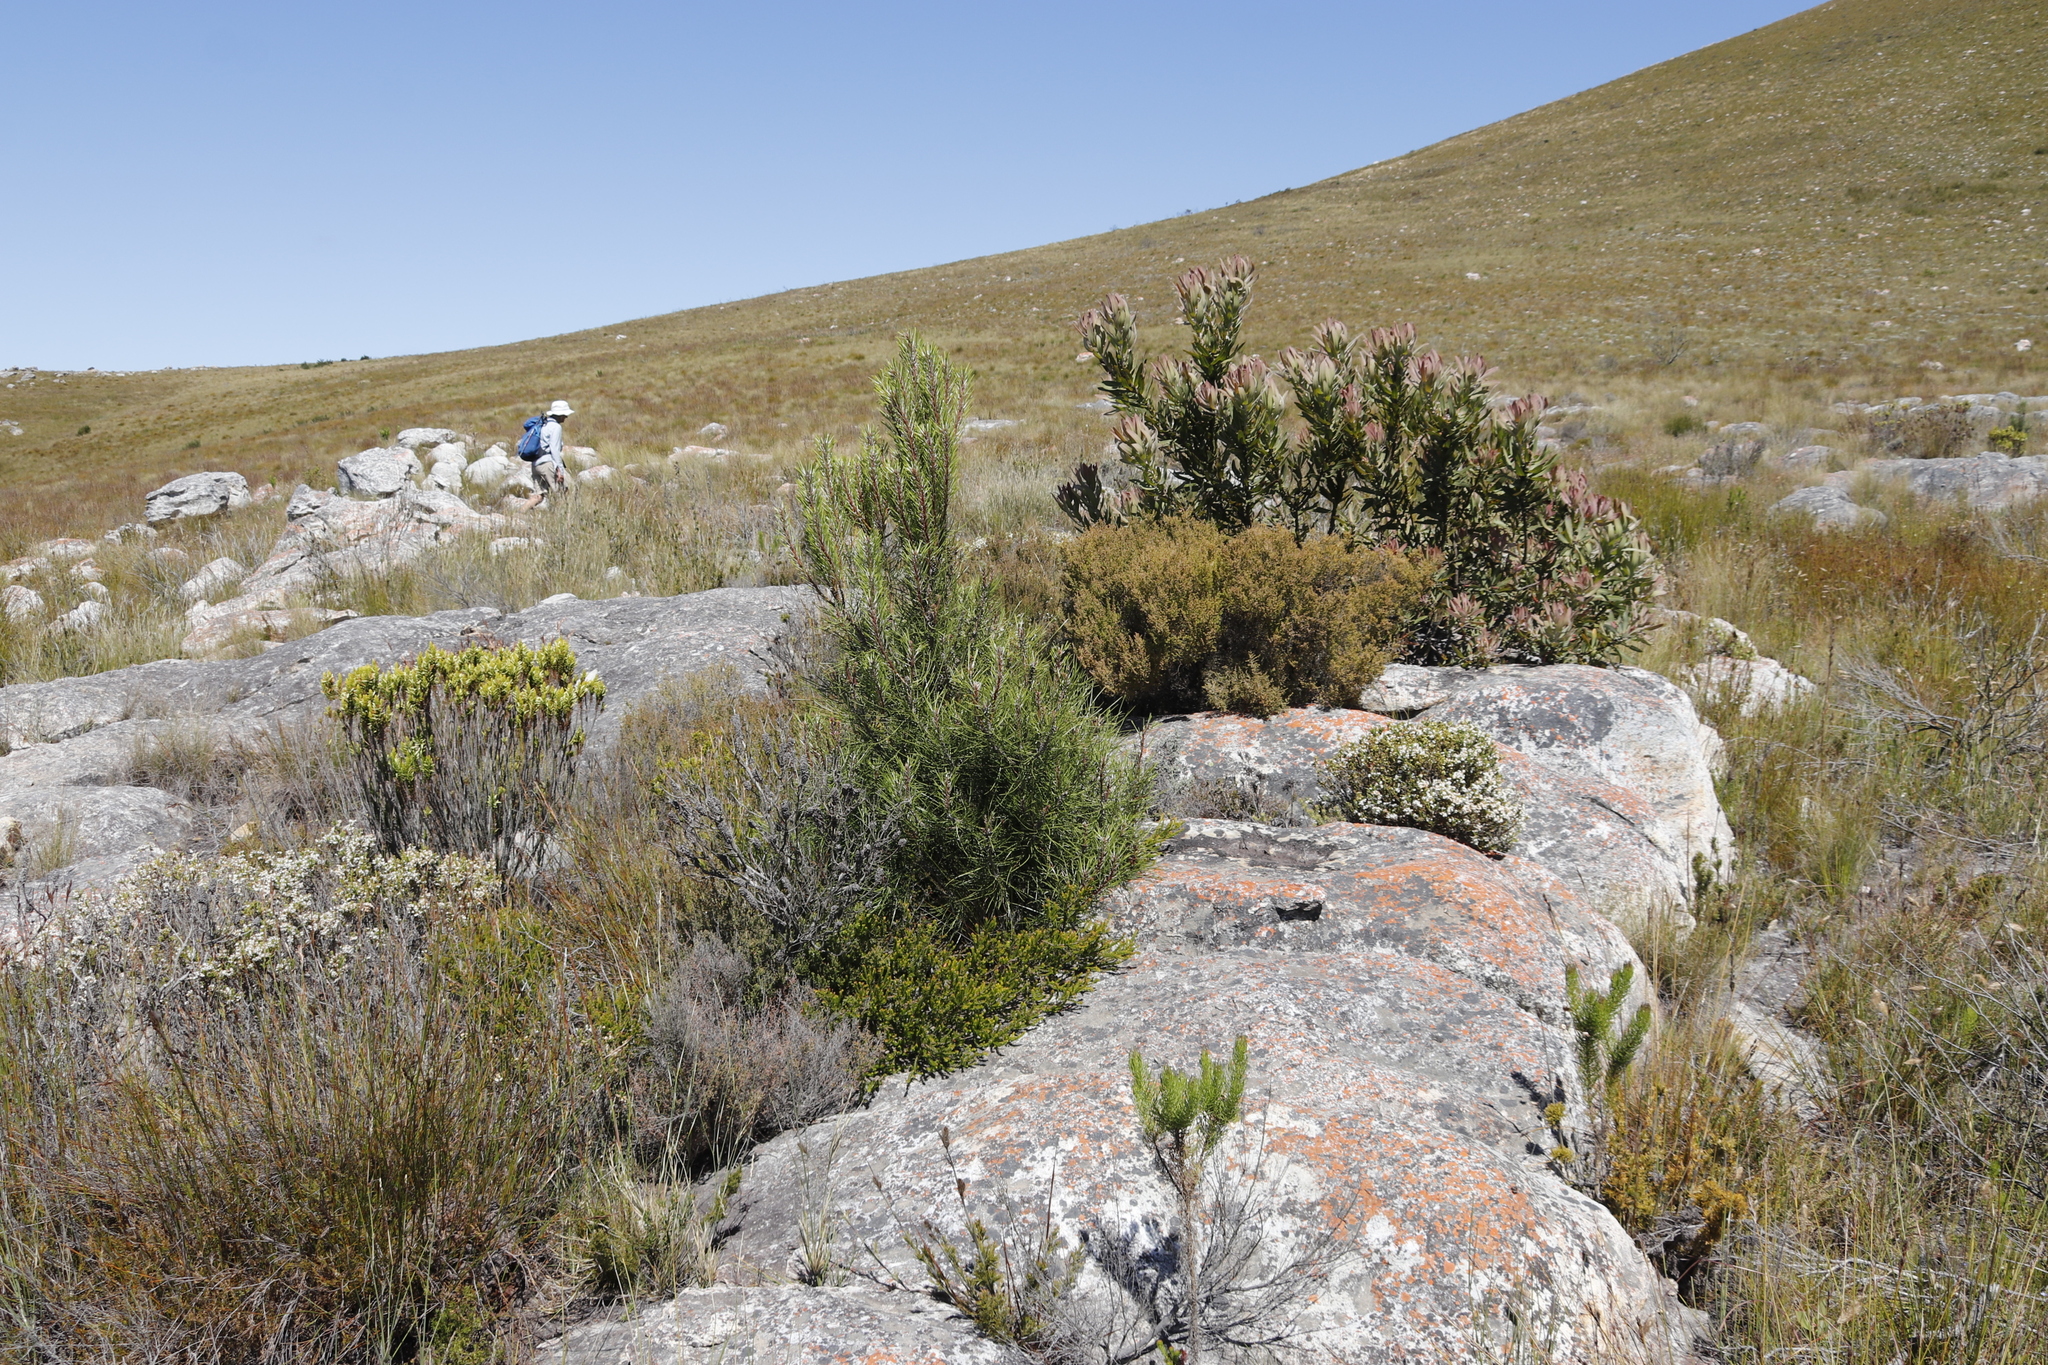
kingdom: Plantae
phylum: Tracheophyta
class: Magnoliopsida
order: Ericales
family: Ericaceae
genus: Erica
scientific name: Erica plukenetii
